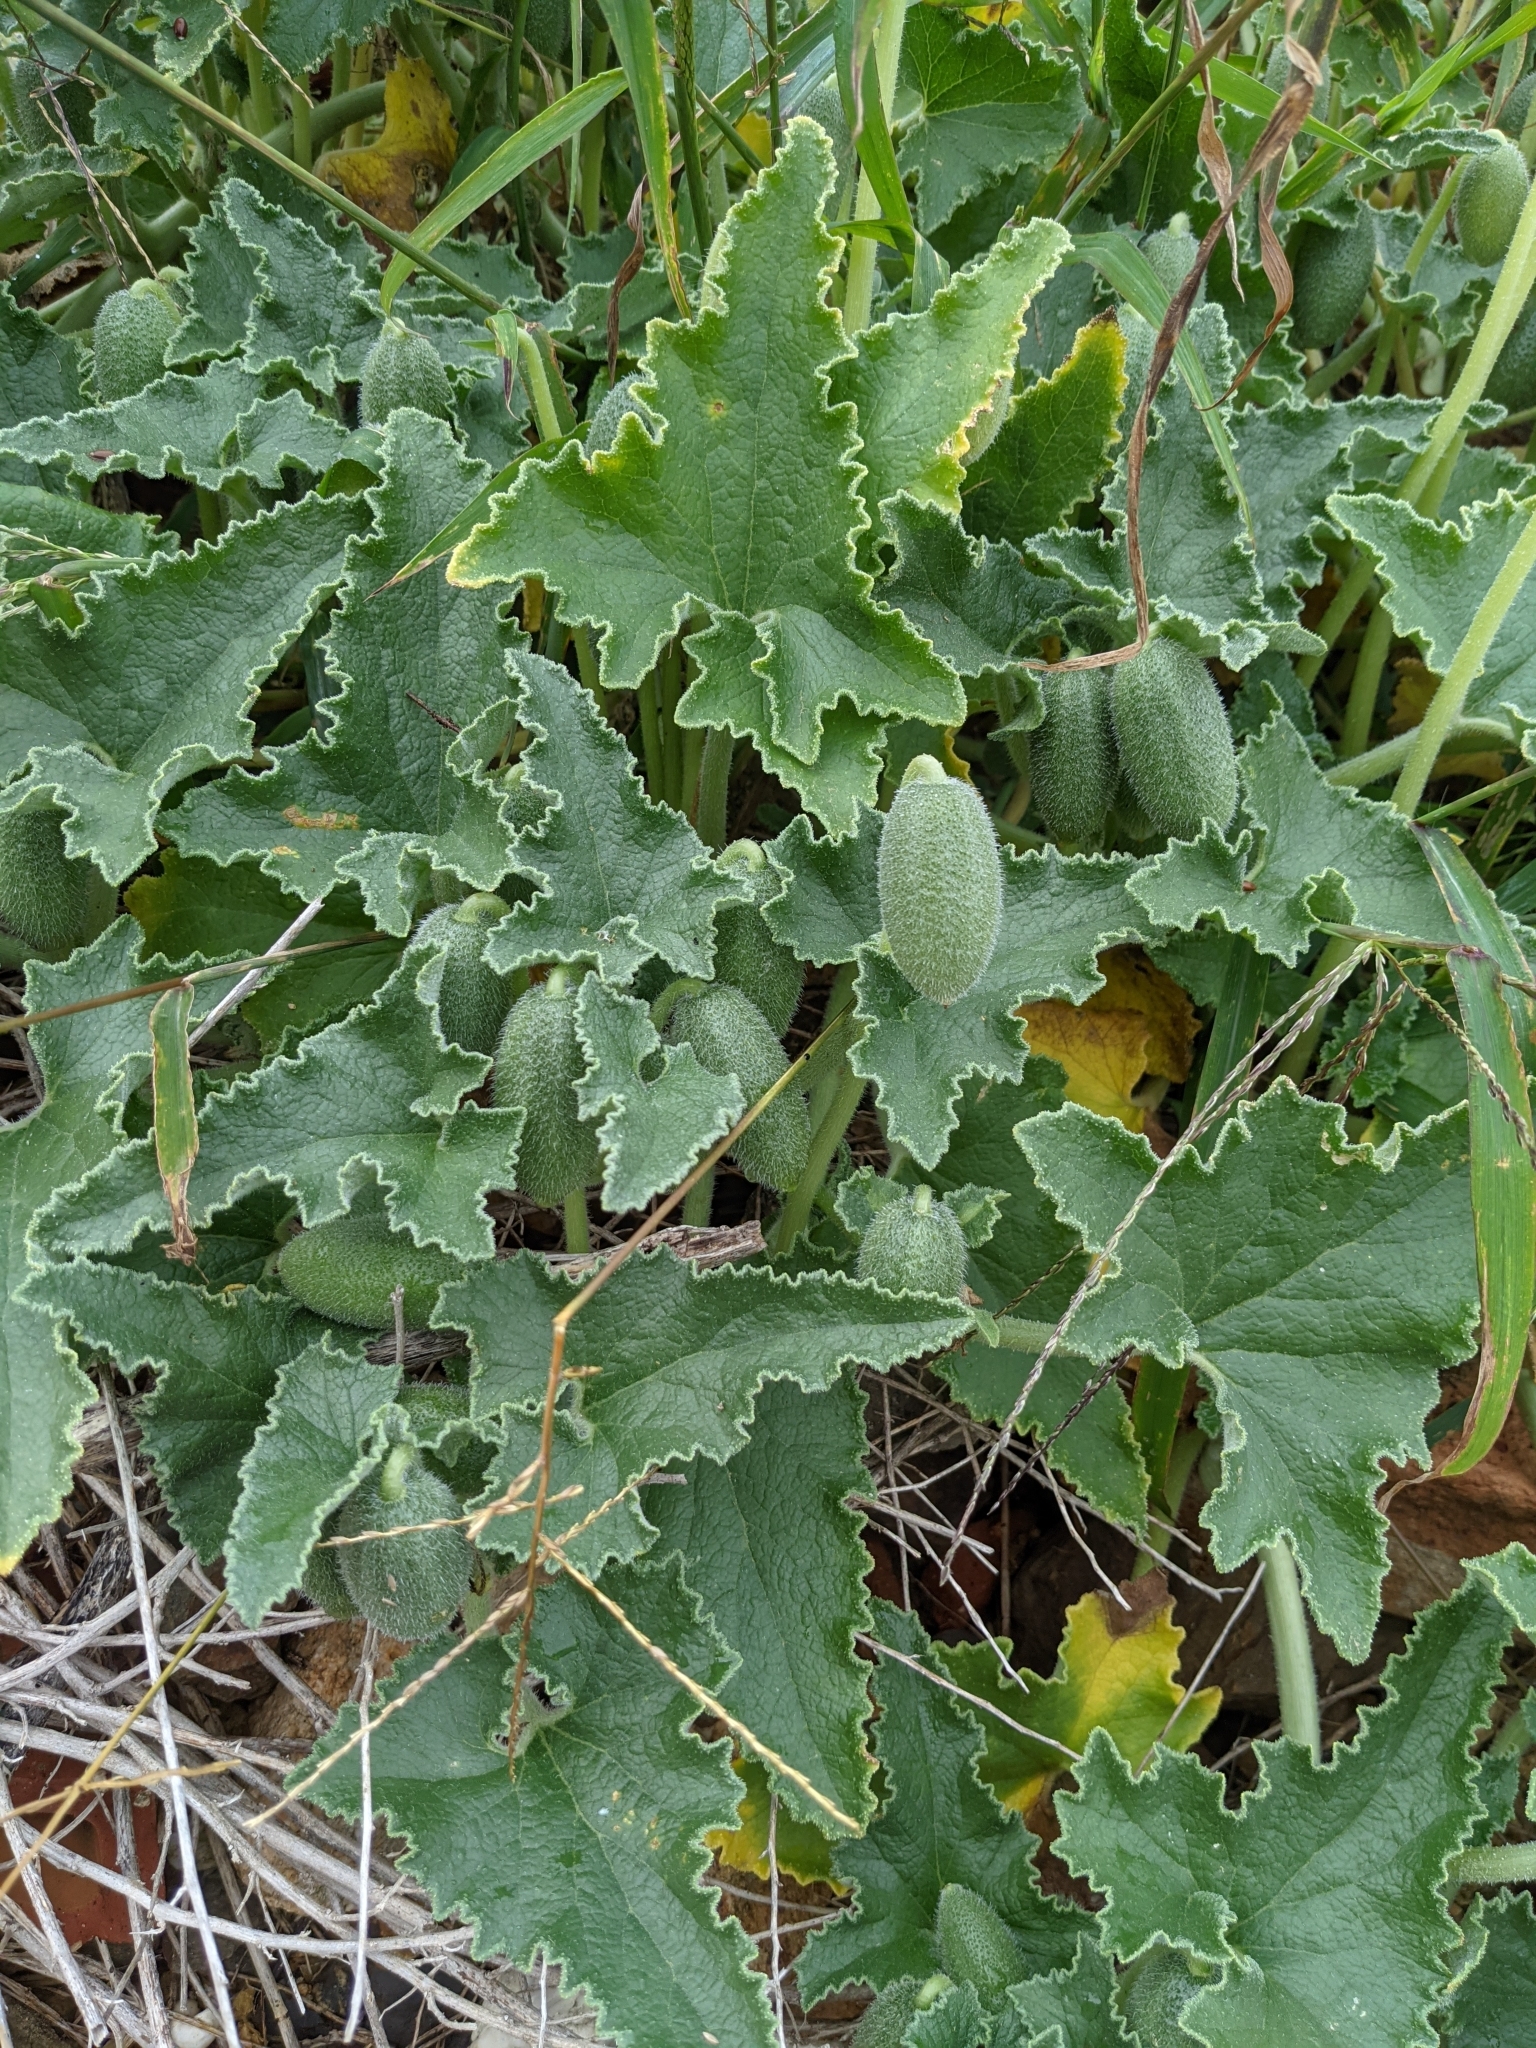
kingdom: Plantae
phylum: Tracheophyta
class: Magnoliopsida
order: Cucurbitales
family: Cucurbitaceae
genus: Ecballium
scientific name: Ecballium elaterium
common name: Squirting cucumber
